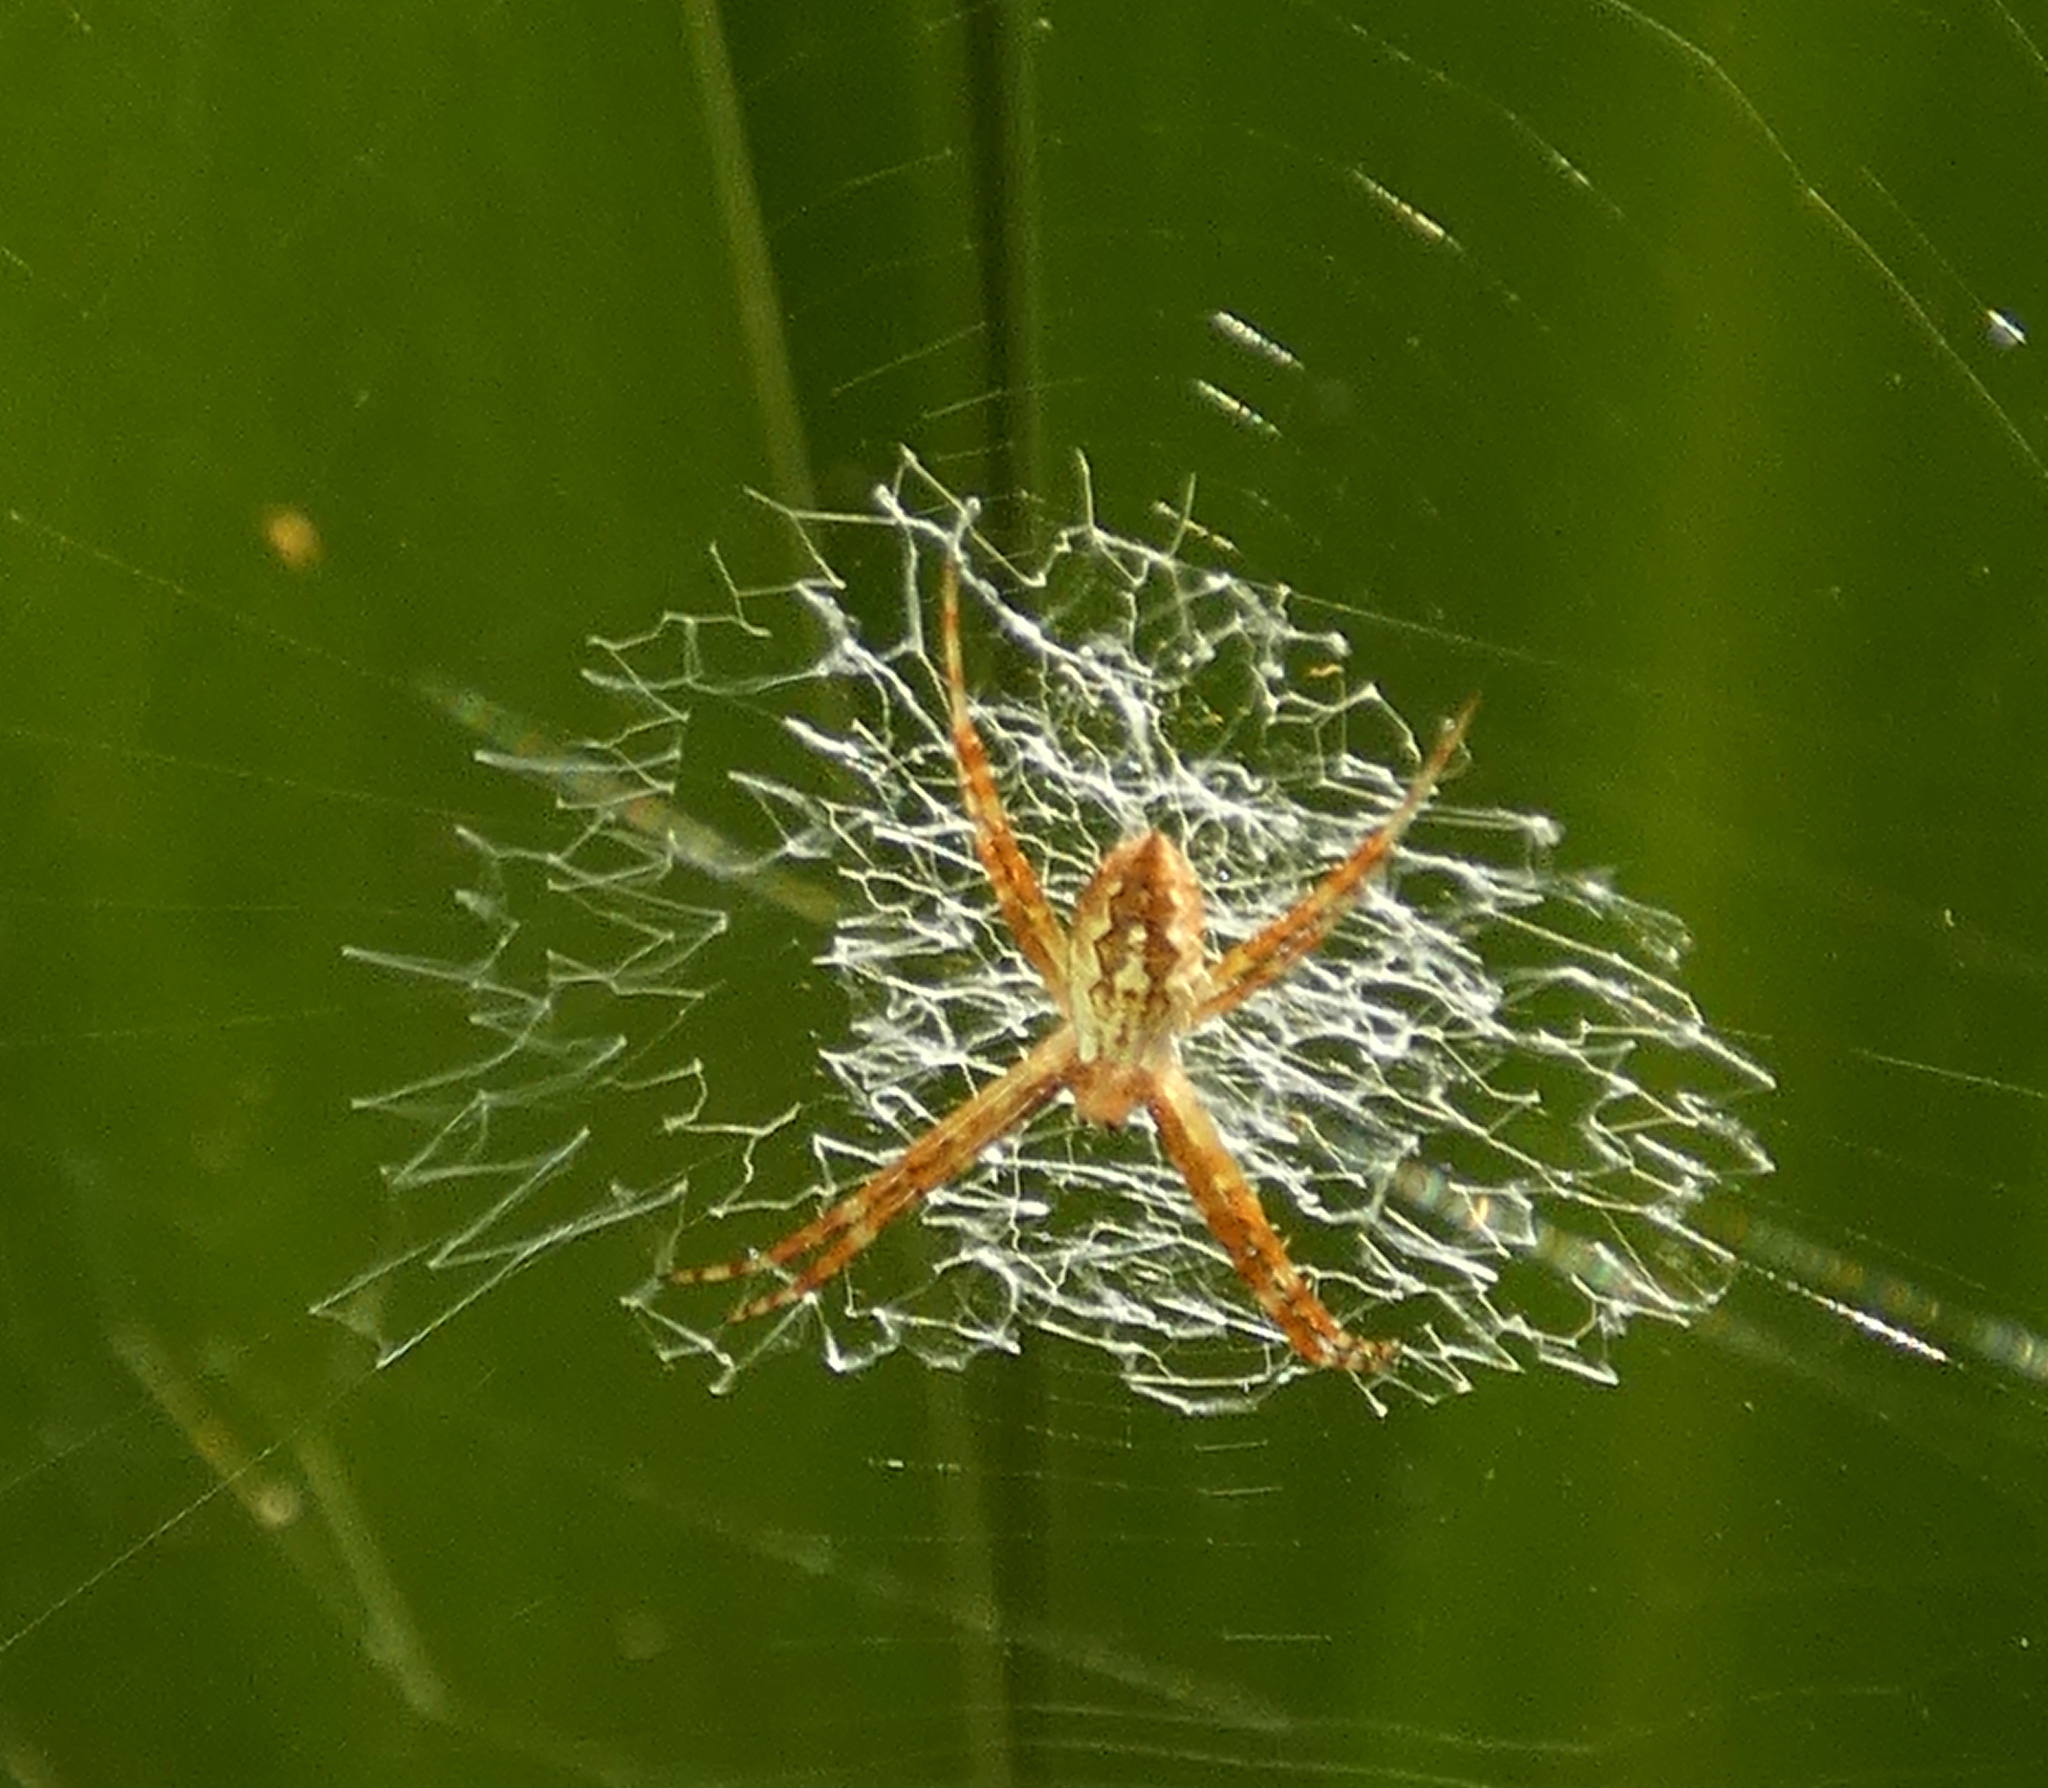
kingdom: Animalia
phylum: Arthropoda
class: Arachnida
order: Araneae
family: Araneidae
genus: Argiope
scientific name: Argiope argentata
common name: Orb weavers
